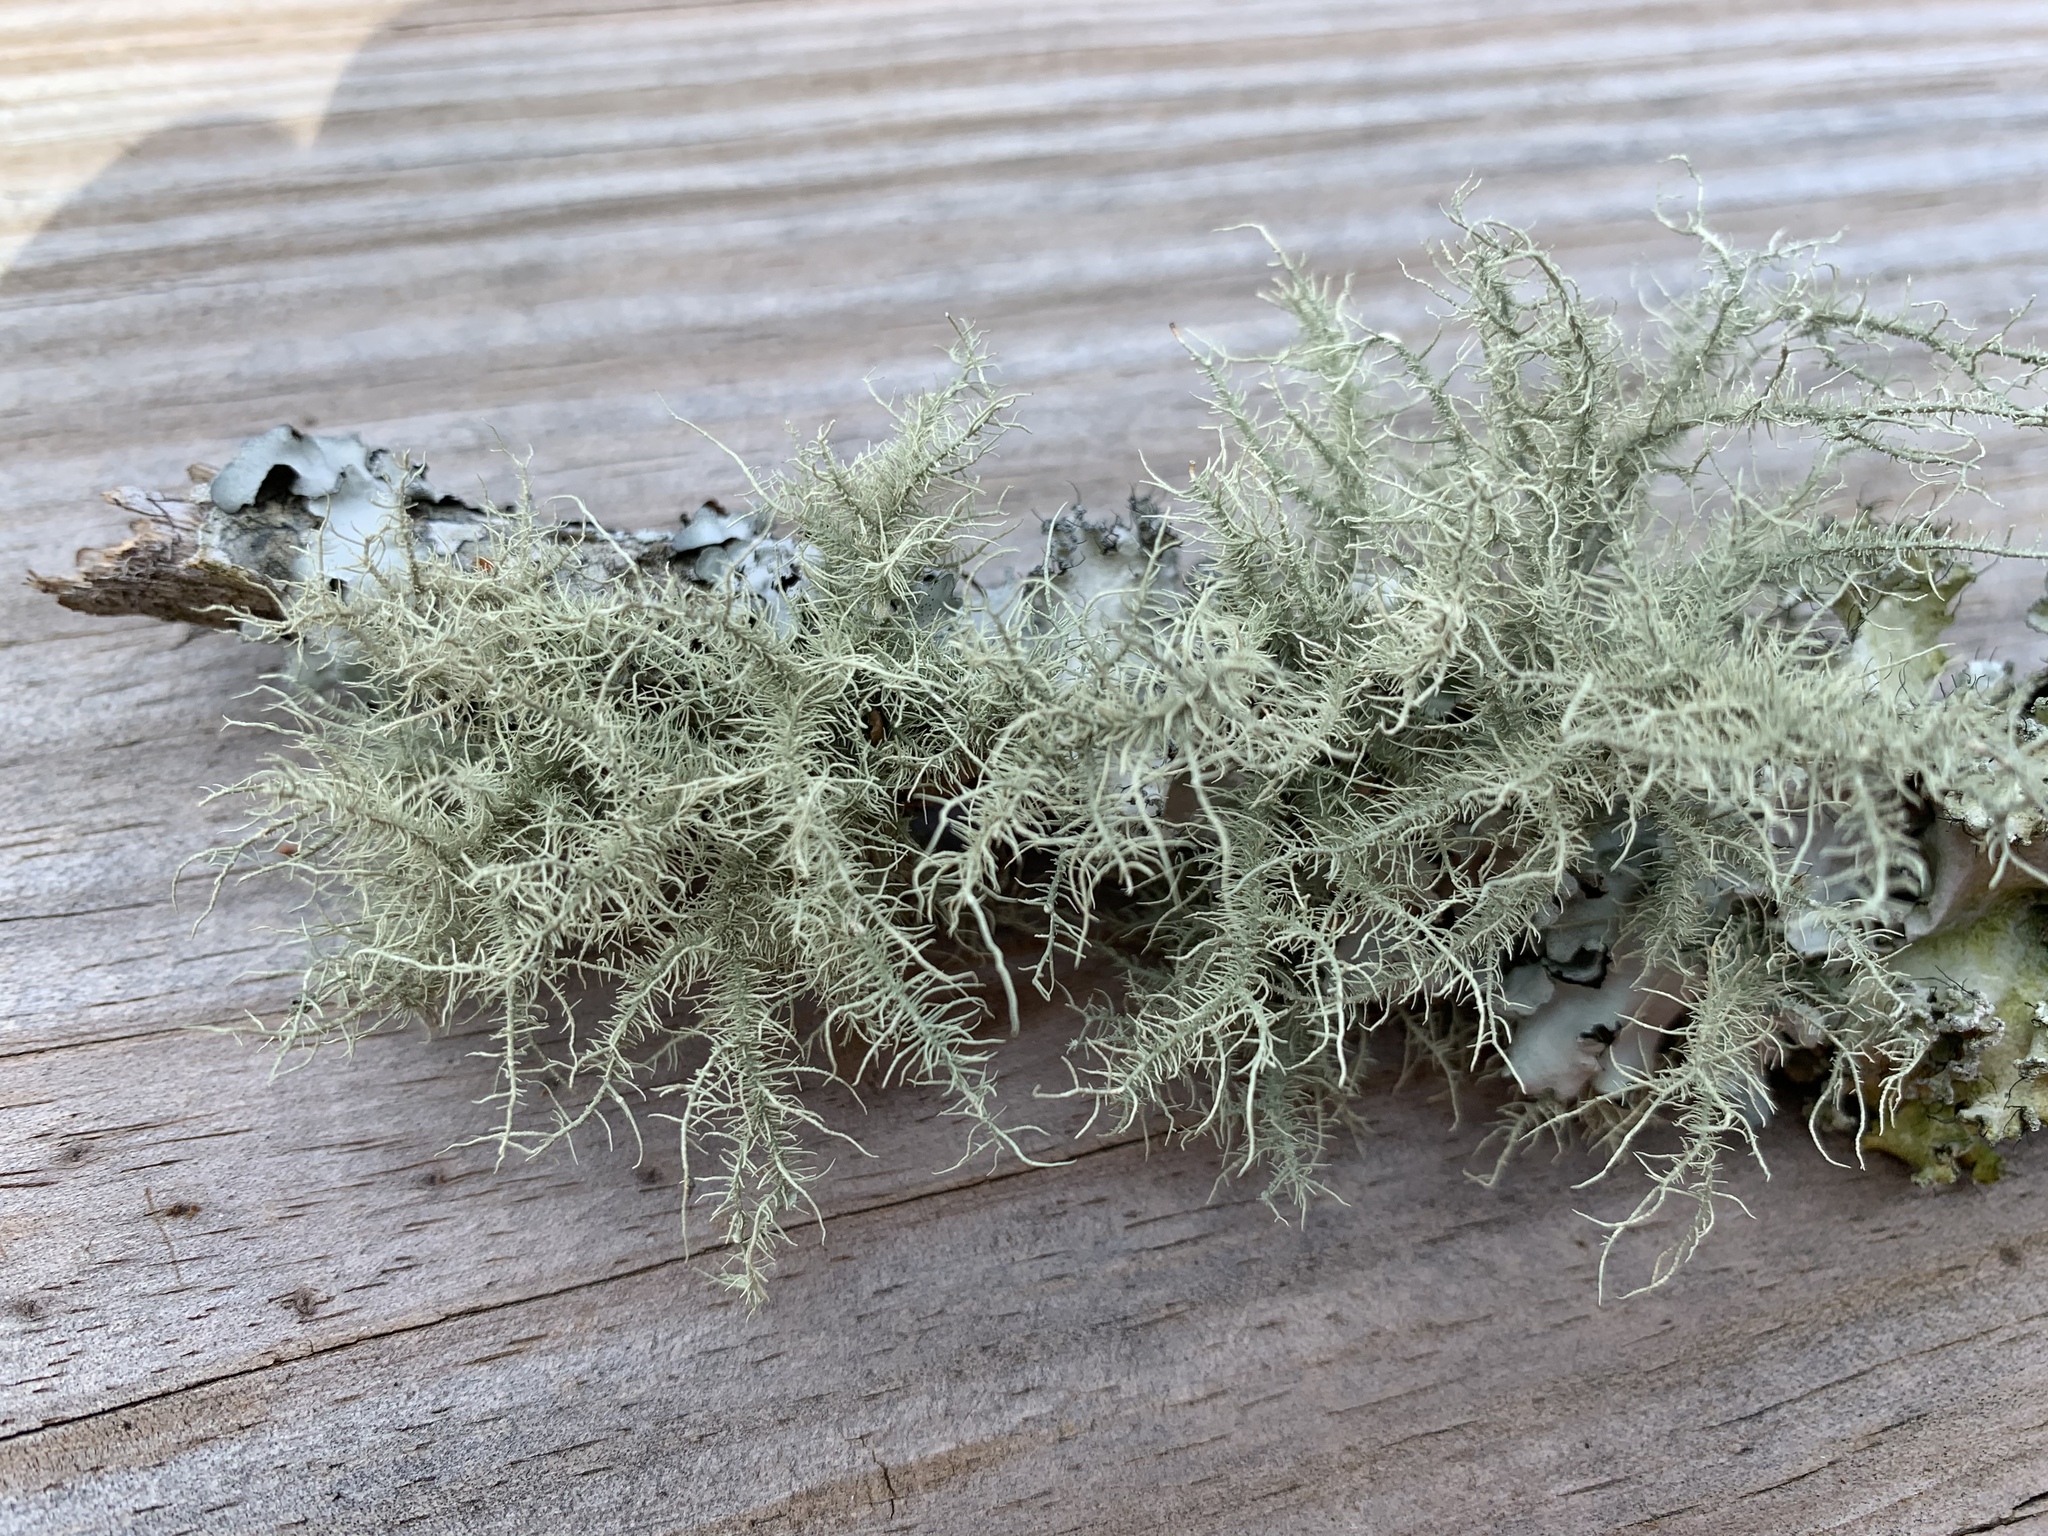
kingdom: Fungi
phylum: Ascomycota
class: Lecanoromycetes
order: Lecanorales
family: Parmeliaceae
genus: Usnea
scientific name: Usnea strigosa
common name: Bushy beard lichen
